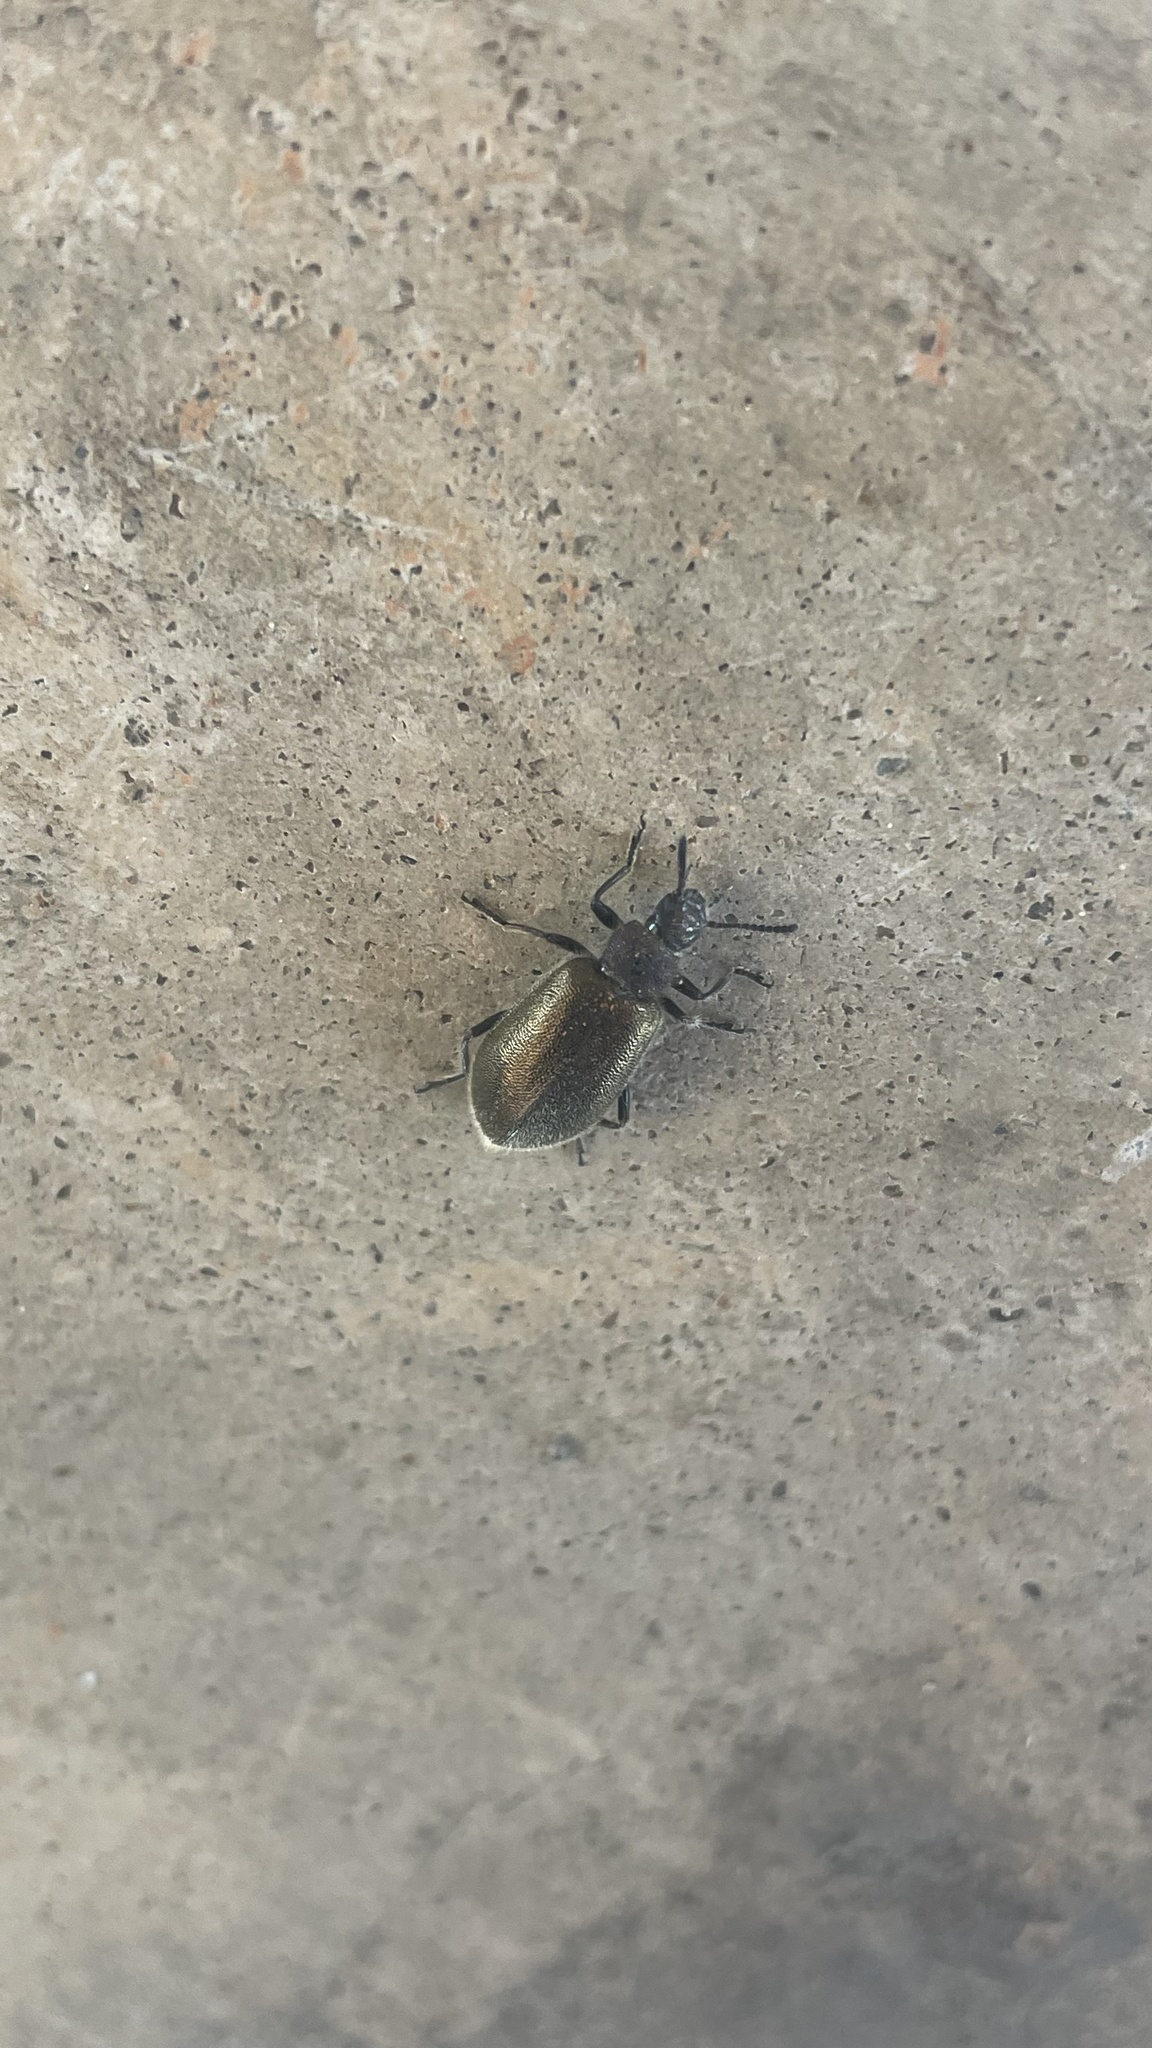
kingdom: Animalia
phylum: Arthropoda
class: Insecta
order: Coleoptera
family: Tenebrionidae
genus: Lagria
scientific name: Lagria villosa
